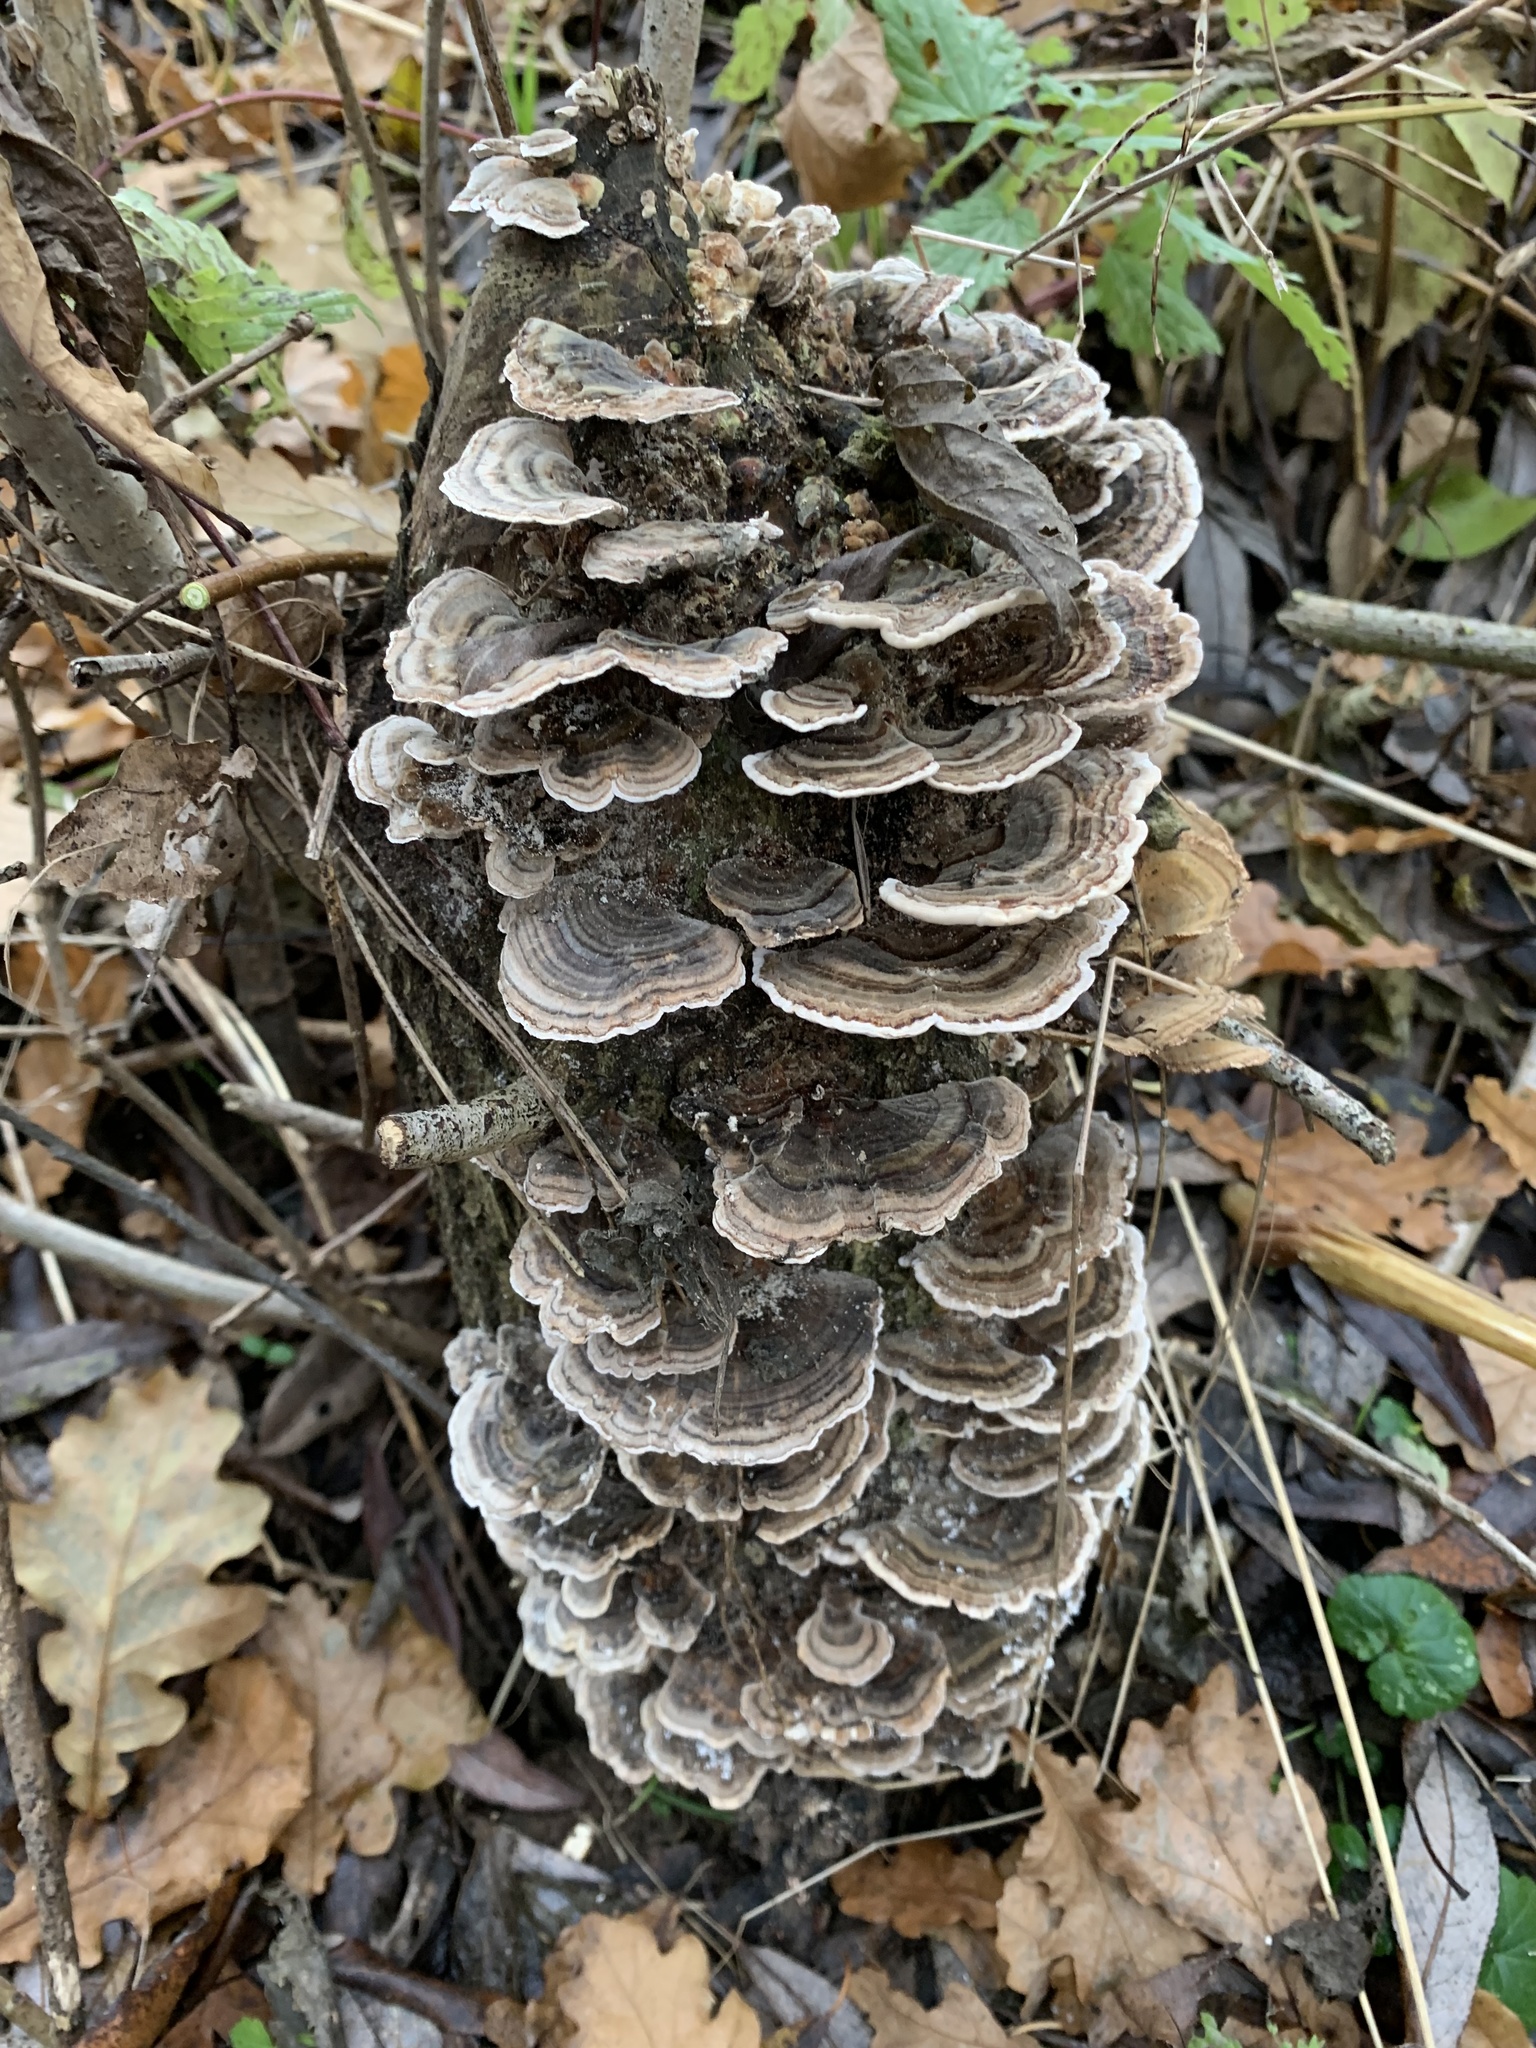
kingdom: Fungi
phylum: Basidiomycota
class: Agaricomycetes
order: Polyporales
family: Polyporaceae
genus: Trametes
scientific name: Trametes versicolor
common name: Turkeytail
